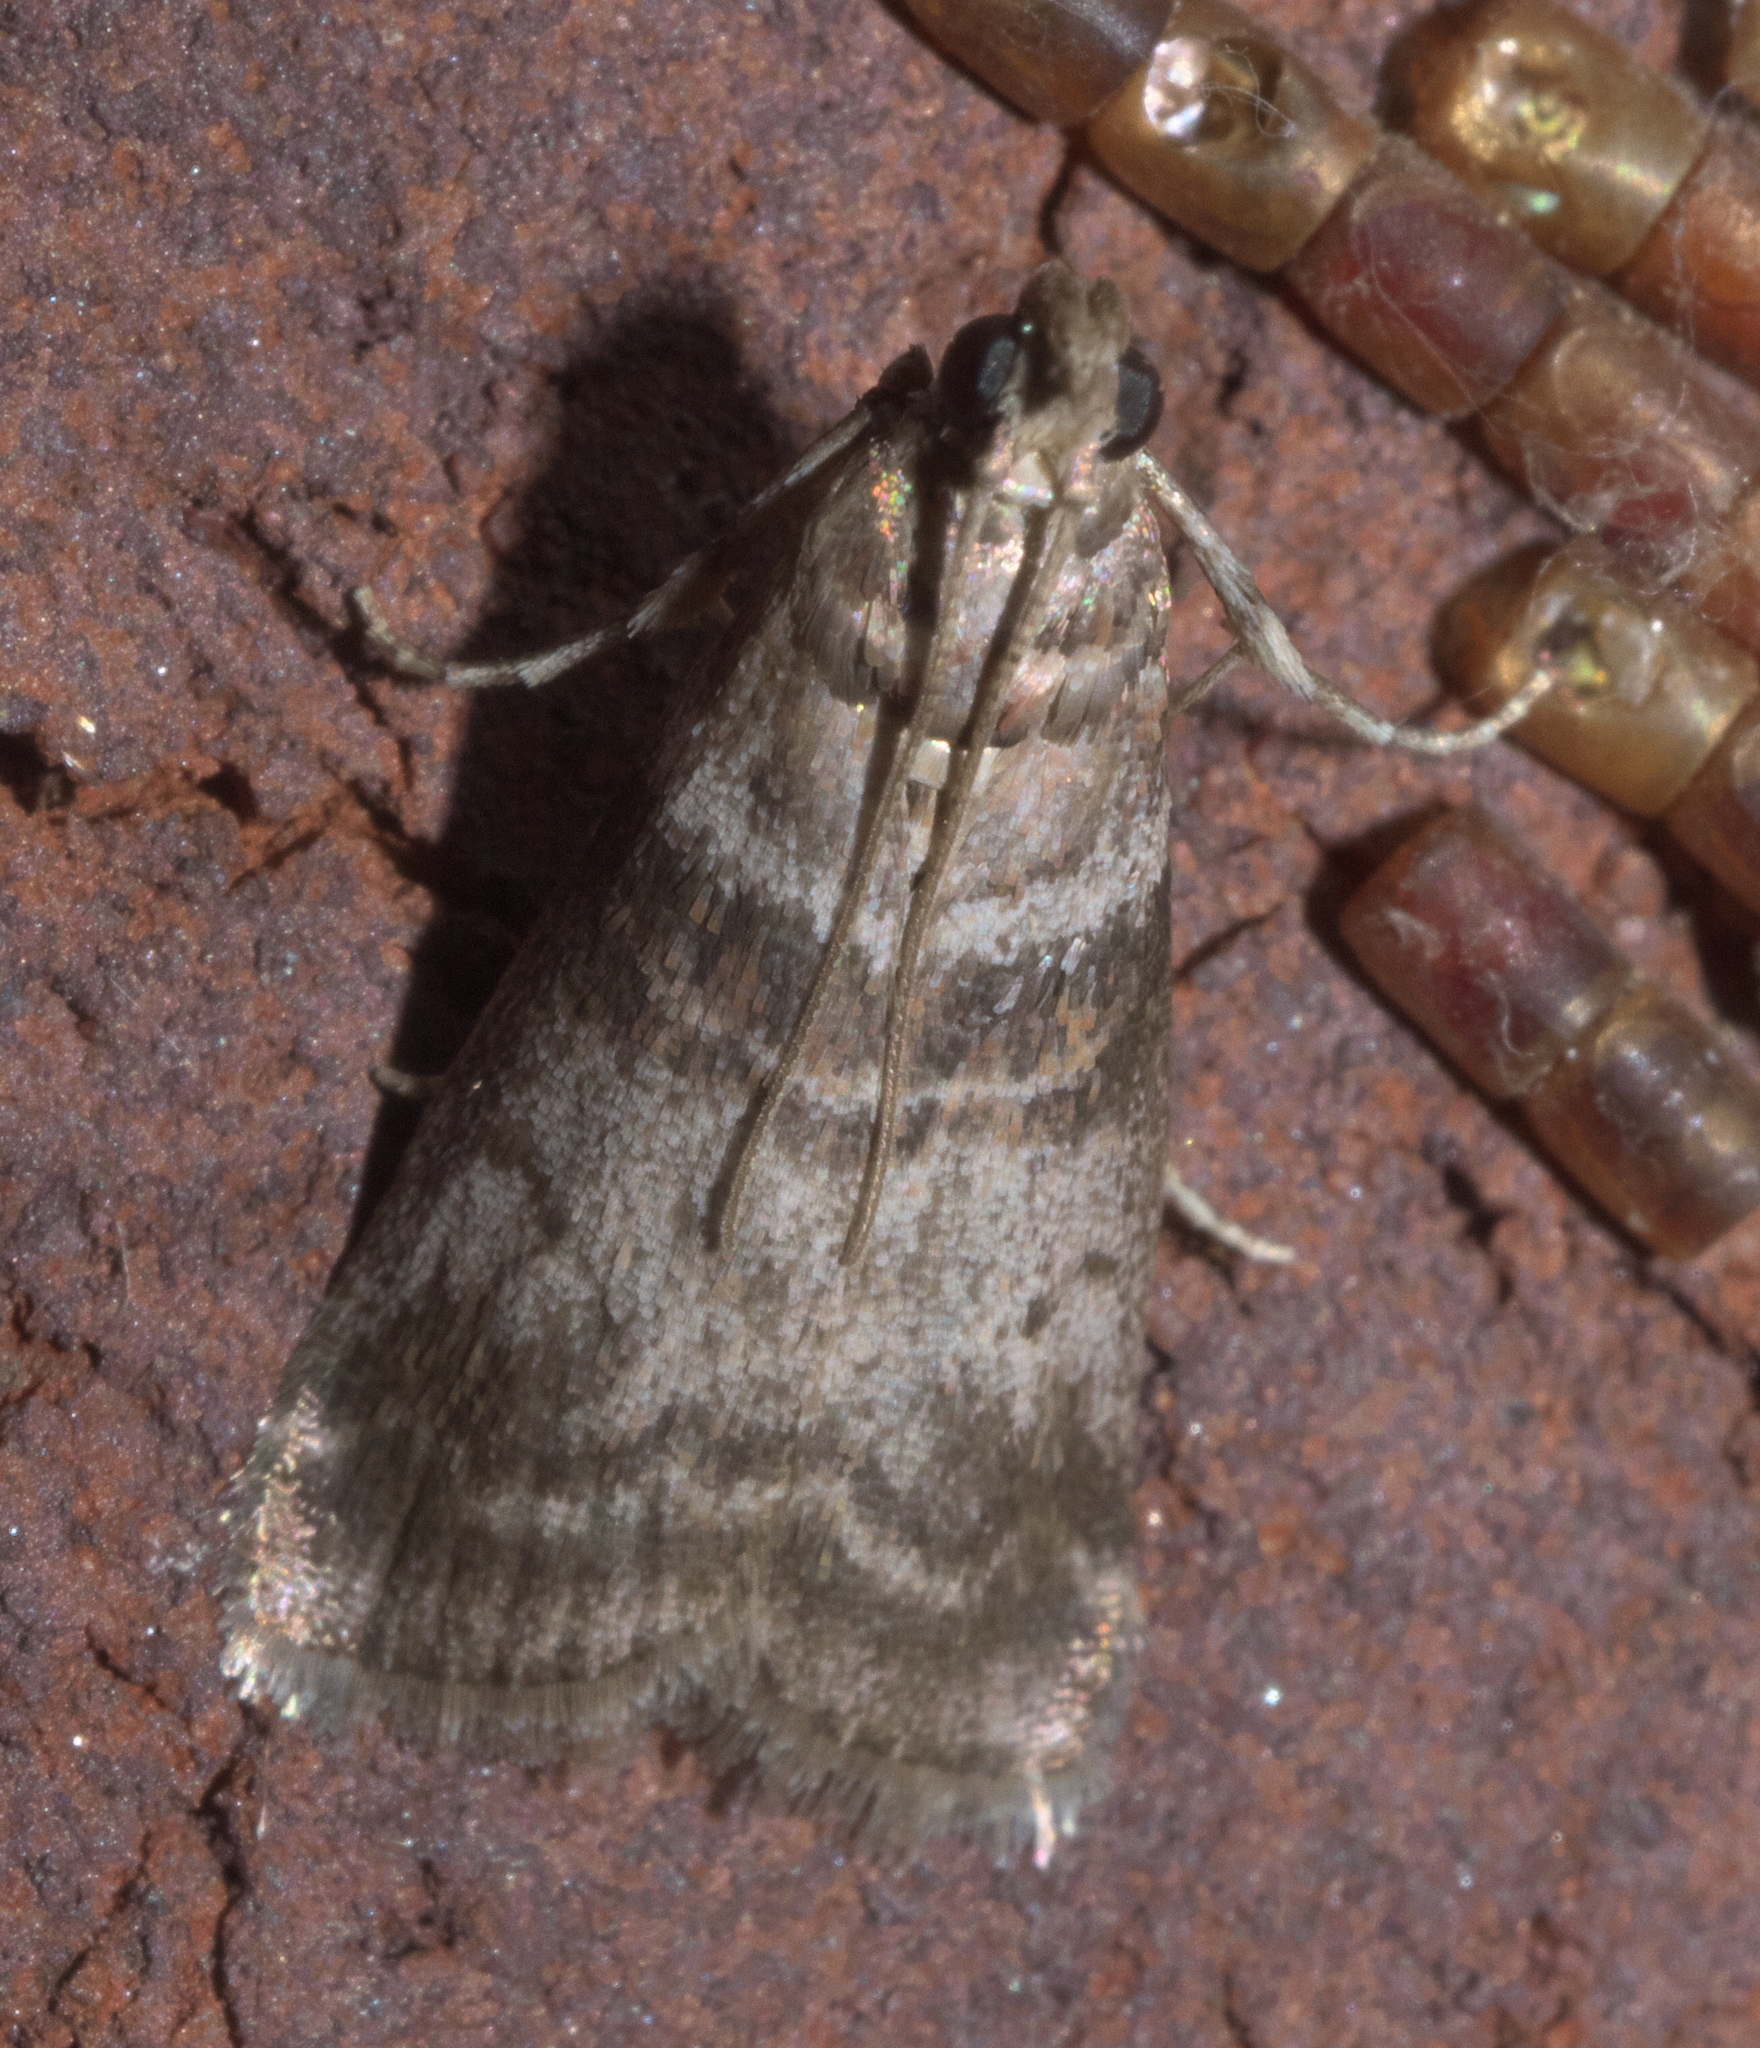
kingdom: Animalia
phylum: Arthropoda
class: Insecta
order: Lepidoptera
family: Pyralidae
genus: Sciota
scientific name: Sciota uvinella
